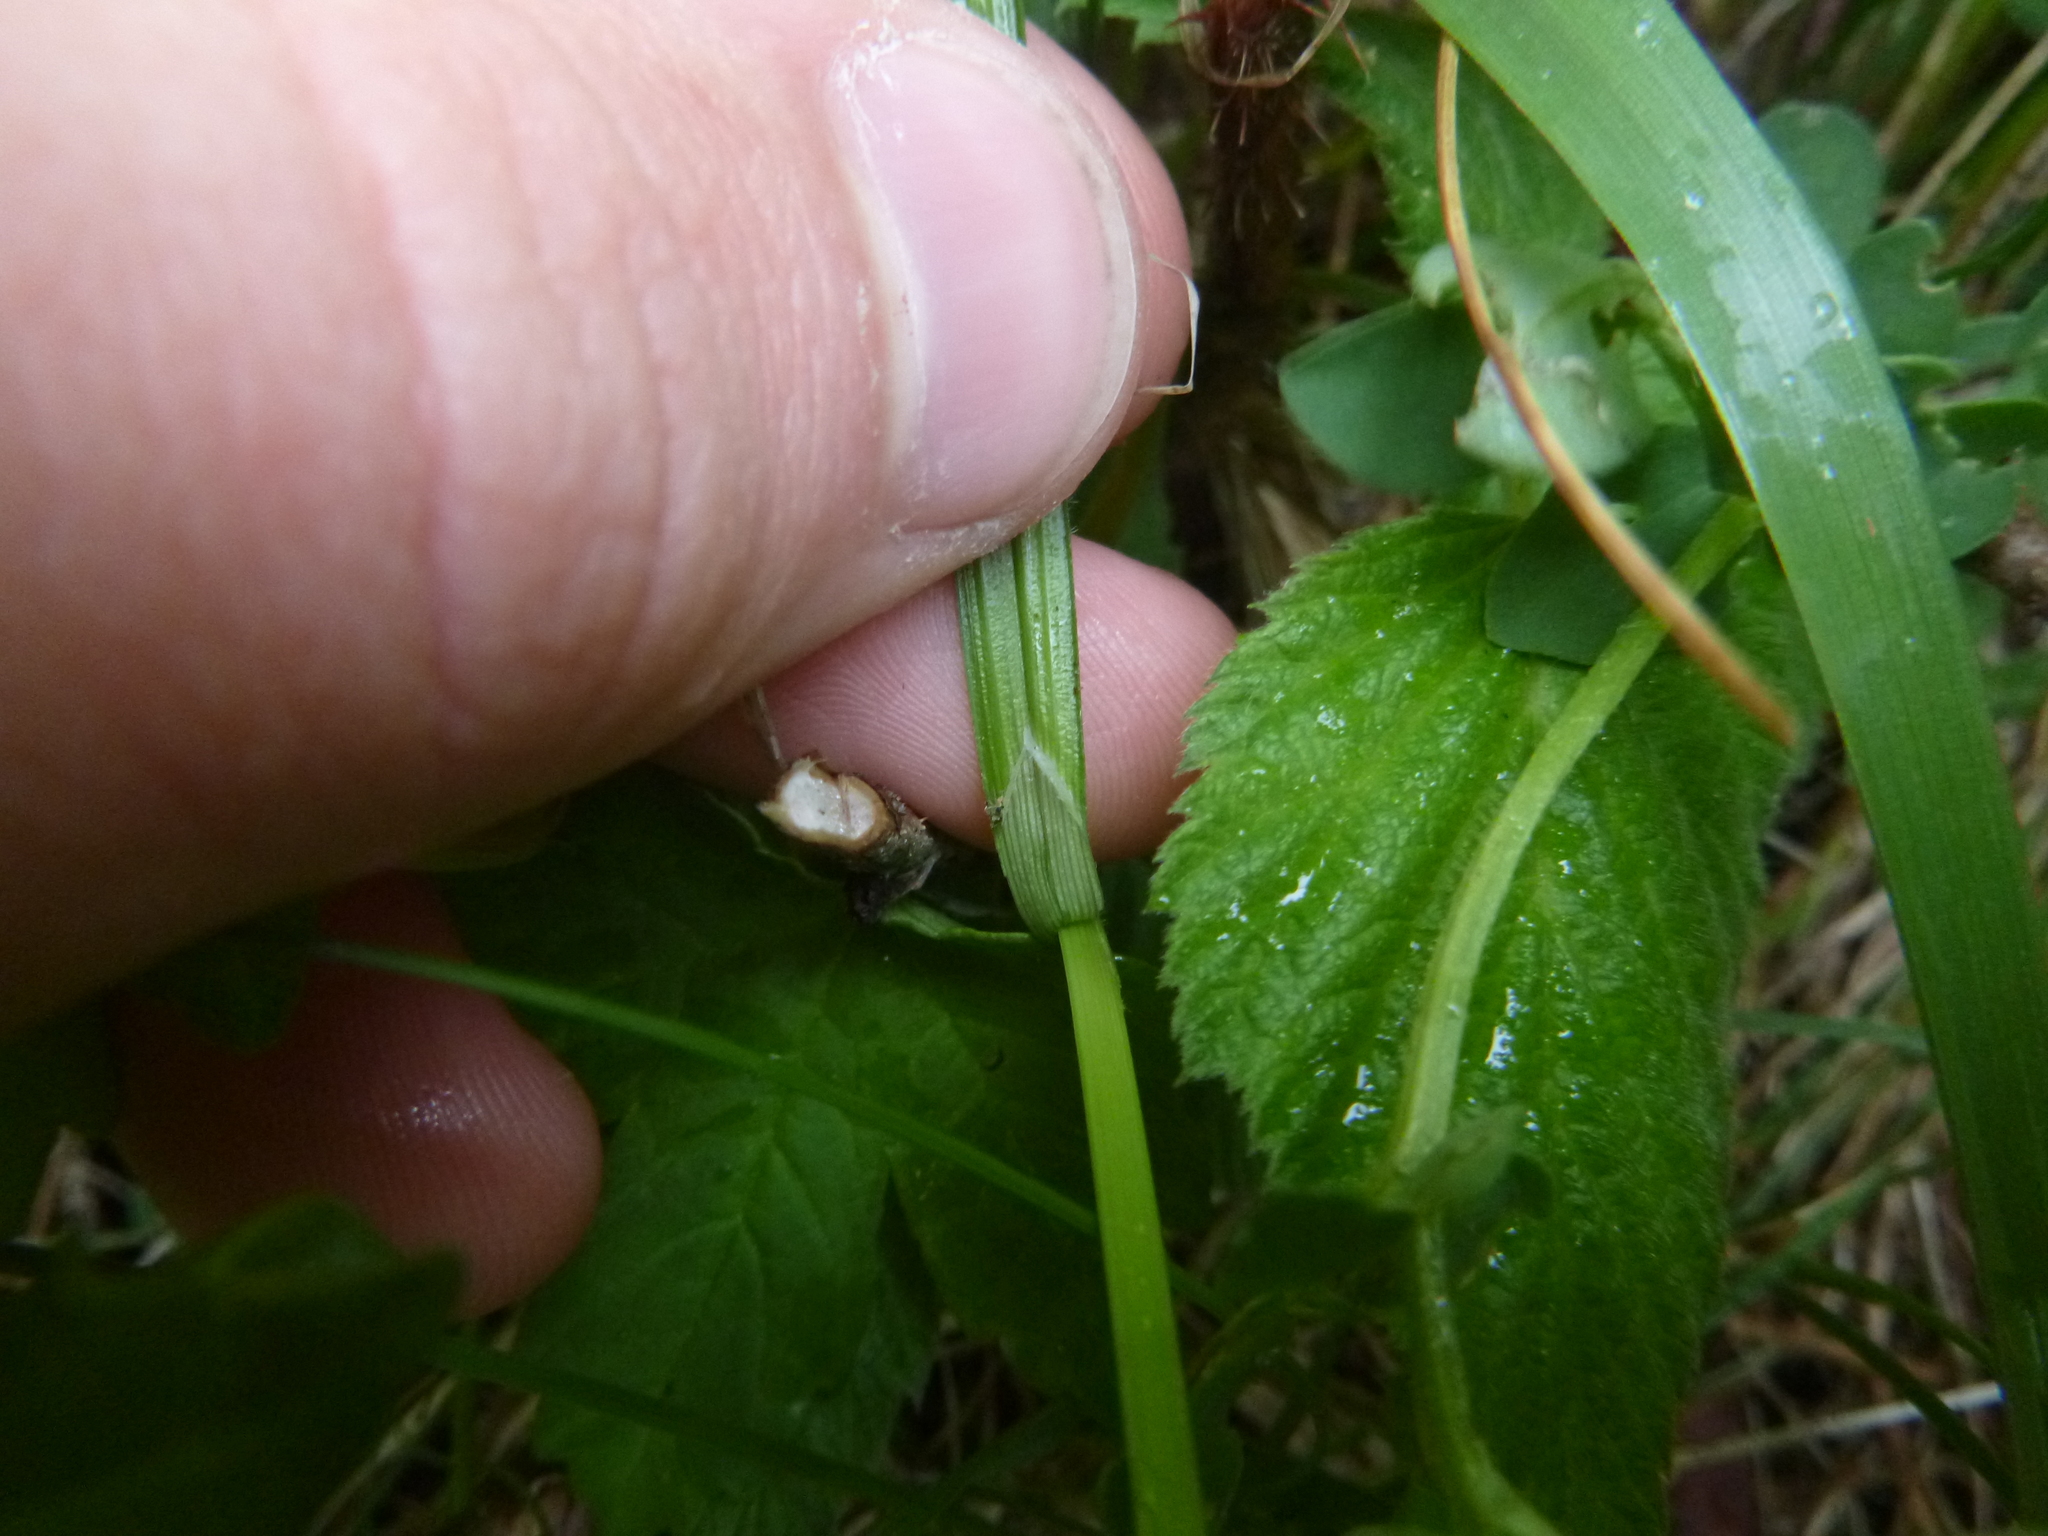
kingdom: Plantae
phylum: Tracheophyta
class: Liliopsida
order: Poales
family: Cyperaceae
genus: Carex
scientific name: Carex pallescens
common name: Pale sedge
